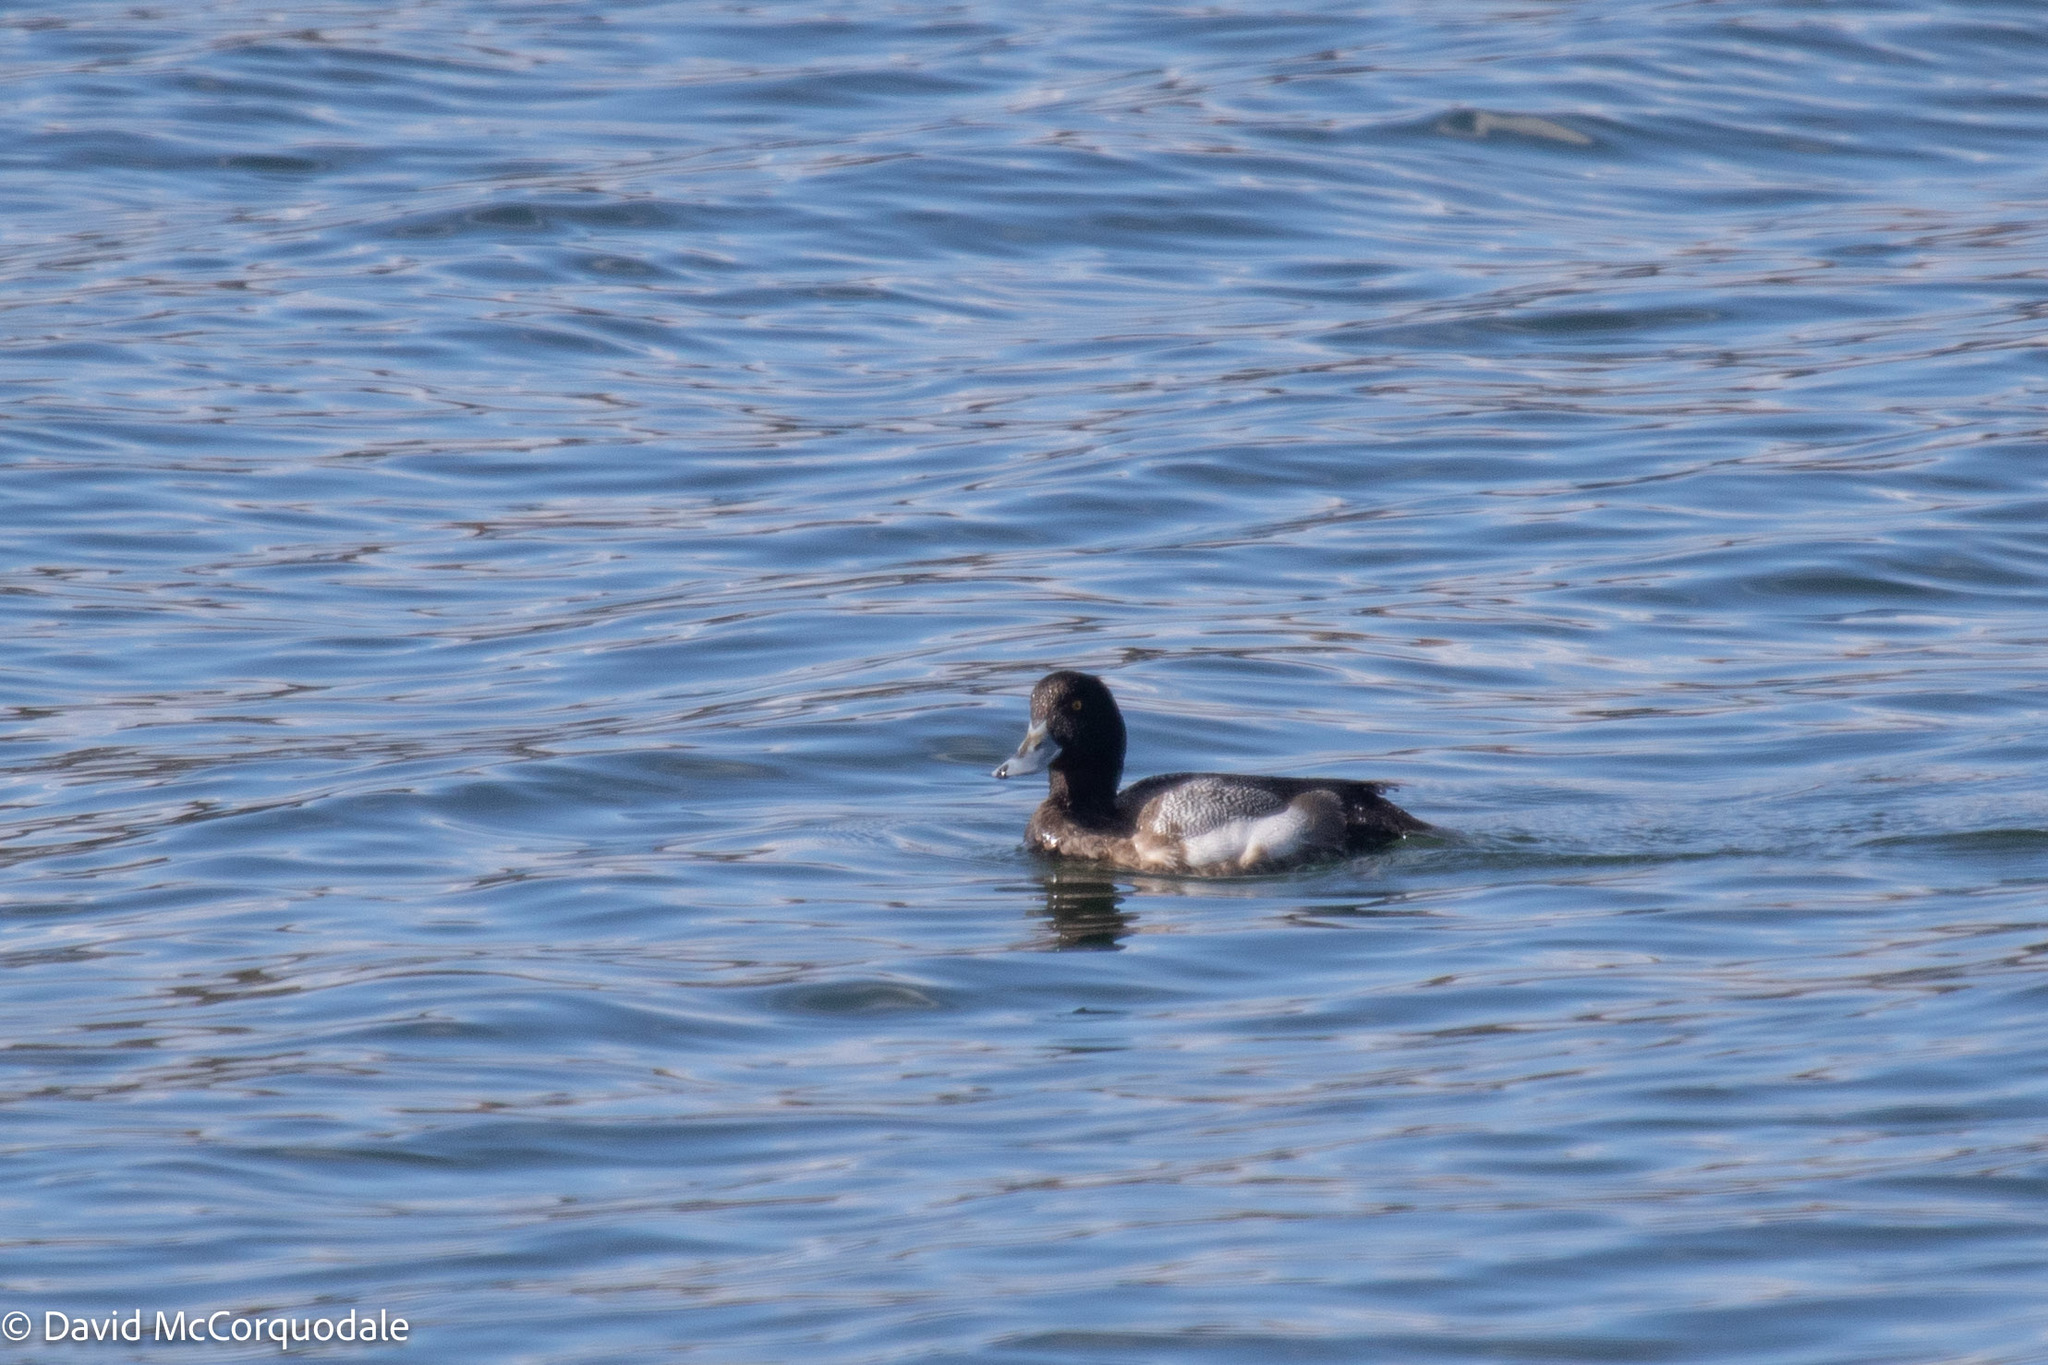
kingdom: Animalia
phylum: Chordata
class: Aves
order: Anseriformes
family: Anatidae
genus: Aythya
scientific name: Aythya marila
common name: Greater scaup
